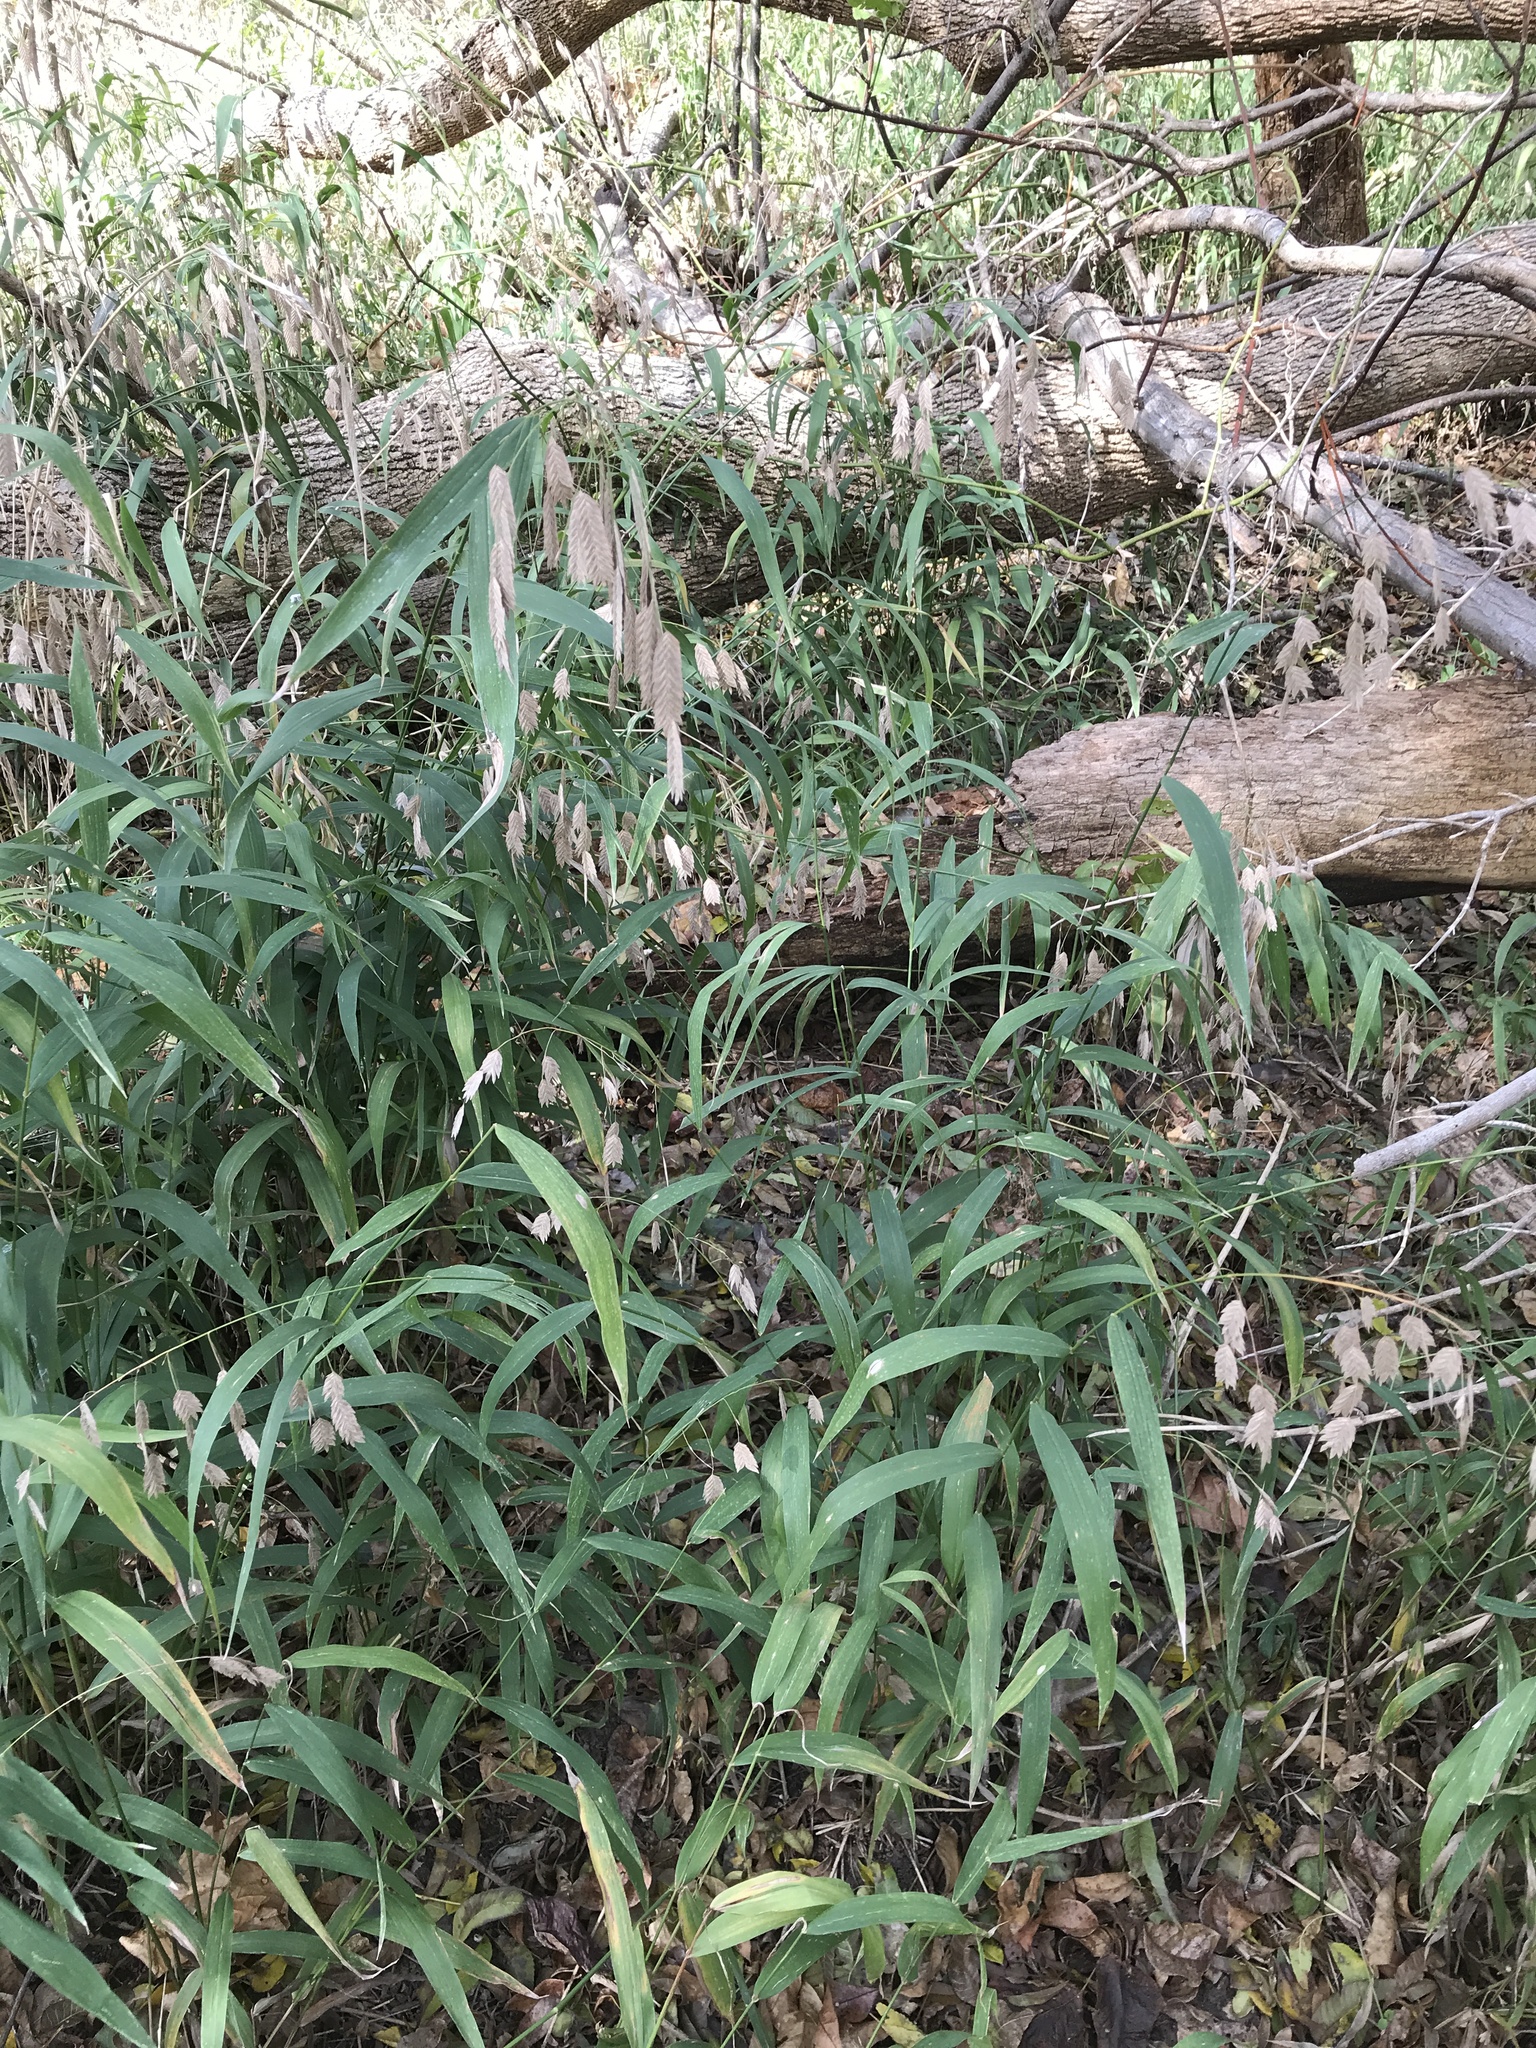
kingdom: Plantae
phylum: Tracheophyta
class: Liliopsida
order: Poales
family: Poaceae
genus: Chasmanthium
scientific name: Chasmanthium latifolium
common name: Broad-leaved chasmanthium
